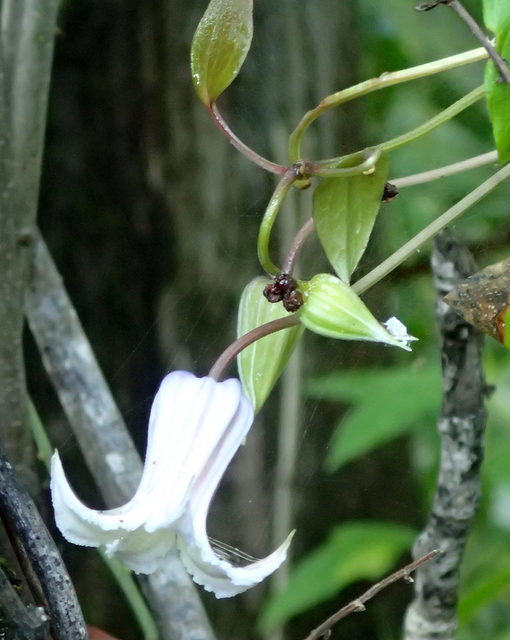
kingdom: Plantae
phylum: Tracheophyta
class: Magnoliopsida
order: Ranunculales
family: Ranunculaceae
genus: Clematis
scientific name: Clematis crispa
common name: Curly clematis
